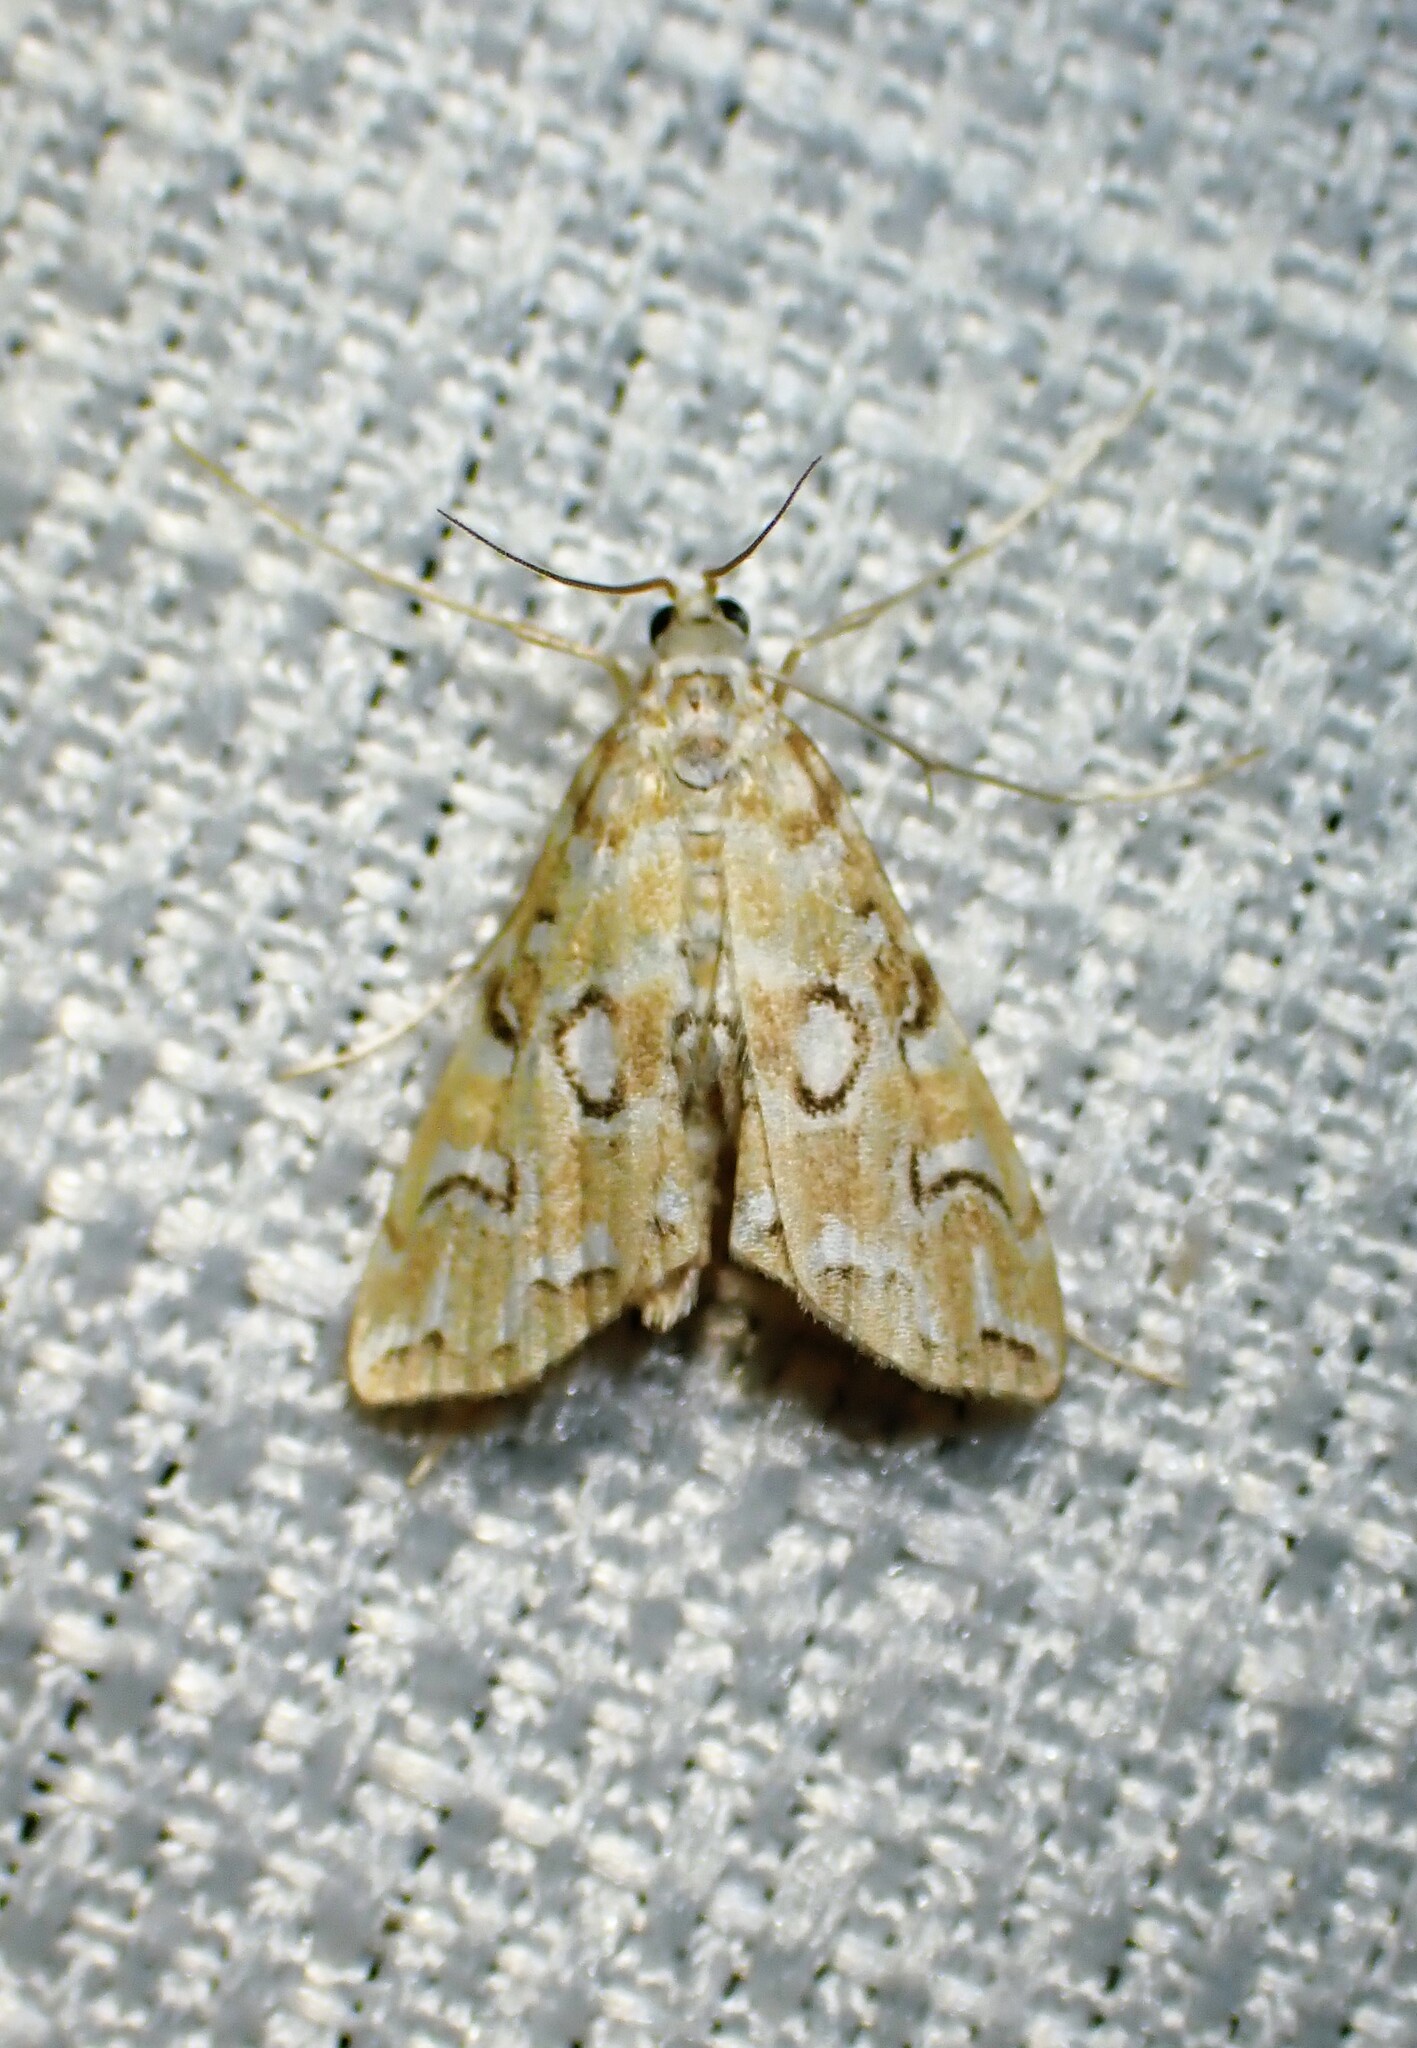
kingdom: Animalia
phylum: Arthropoda
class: Insecta
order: Lepidoptera
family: Crambidae
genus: Elophila
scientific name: Elophila icciusalis
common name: Pondside pyralid moth
